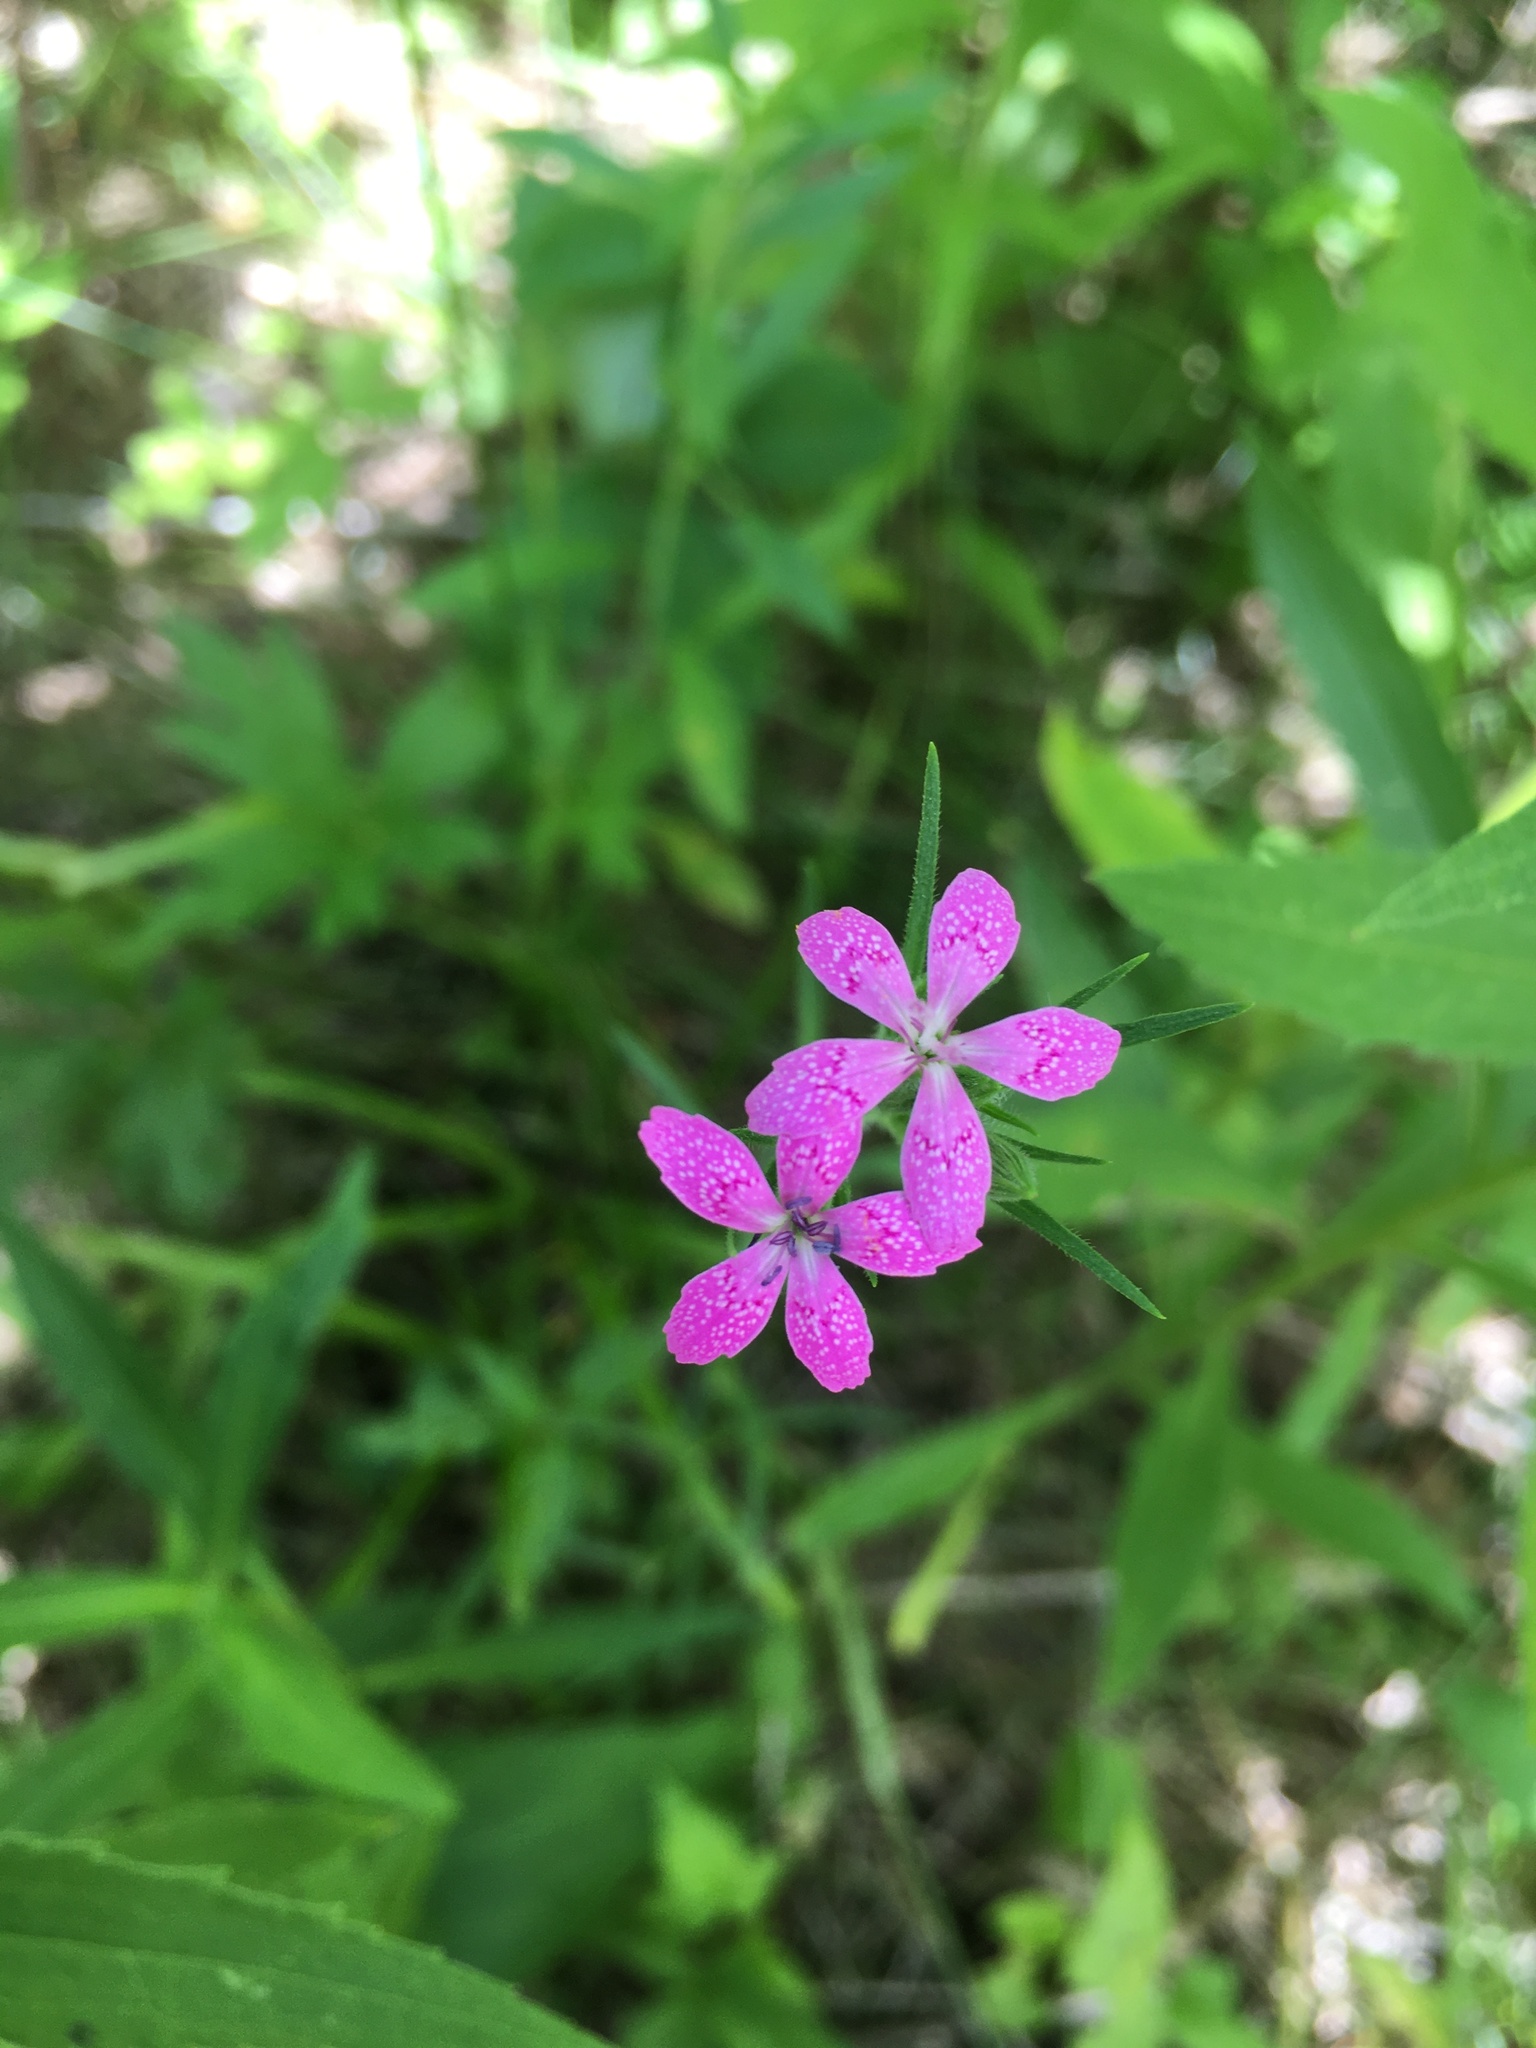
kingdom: Plantae
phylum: Tracheophyta
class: Magnoliopsida
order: Caryophyllales
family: Caryophyllaceae
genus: Dianthus
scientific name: Dianthus armeria
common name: Deptford pink
